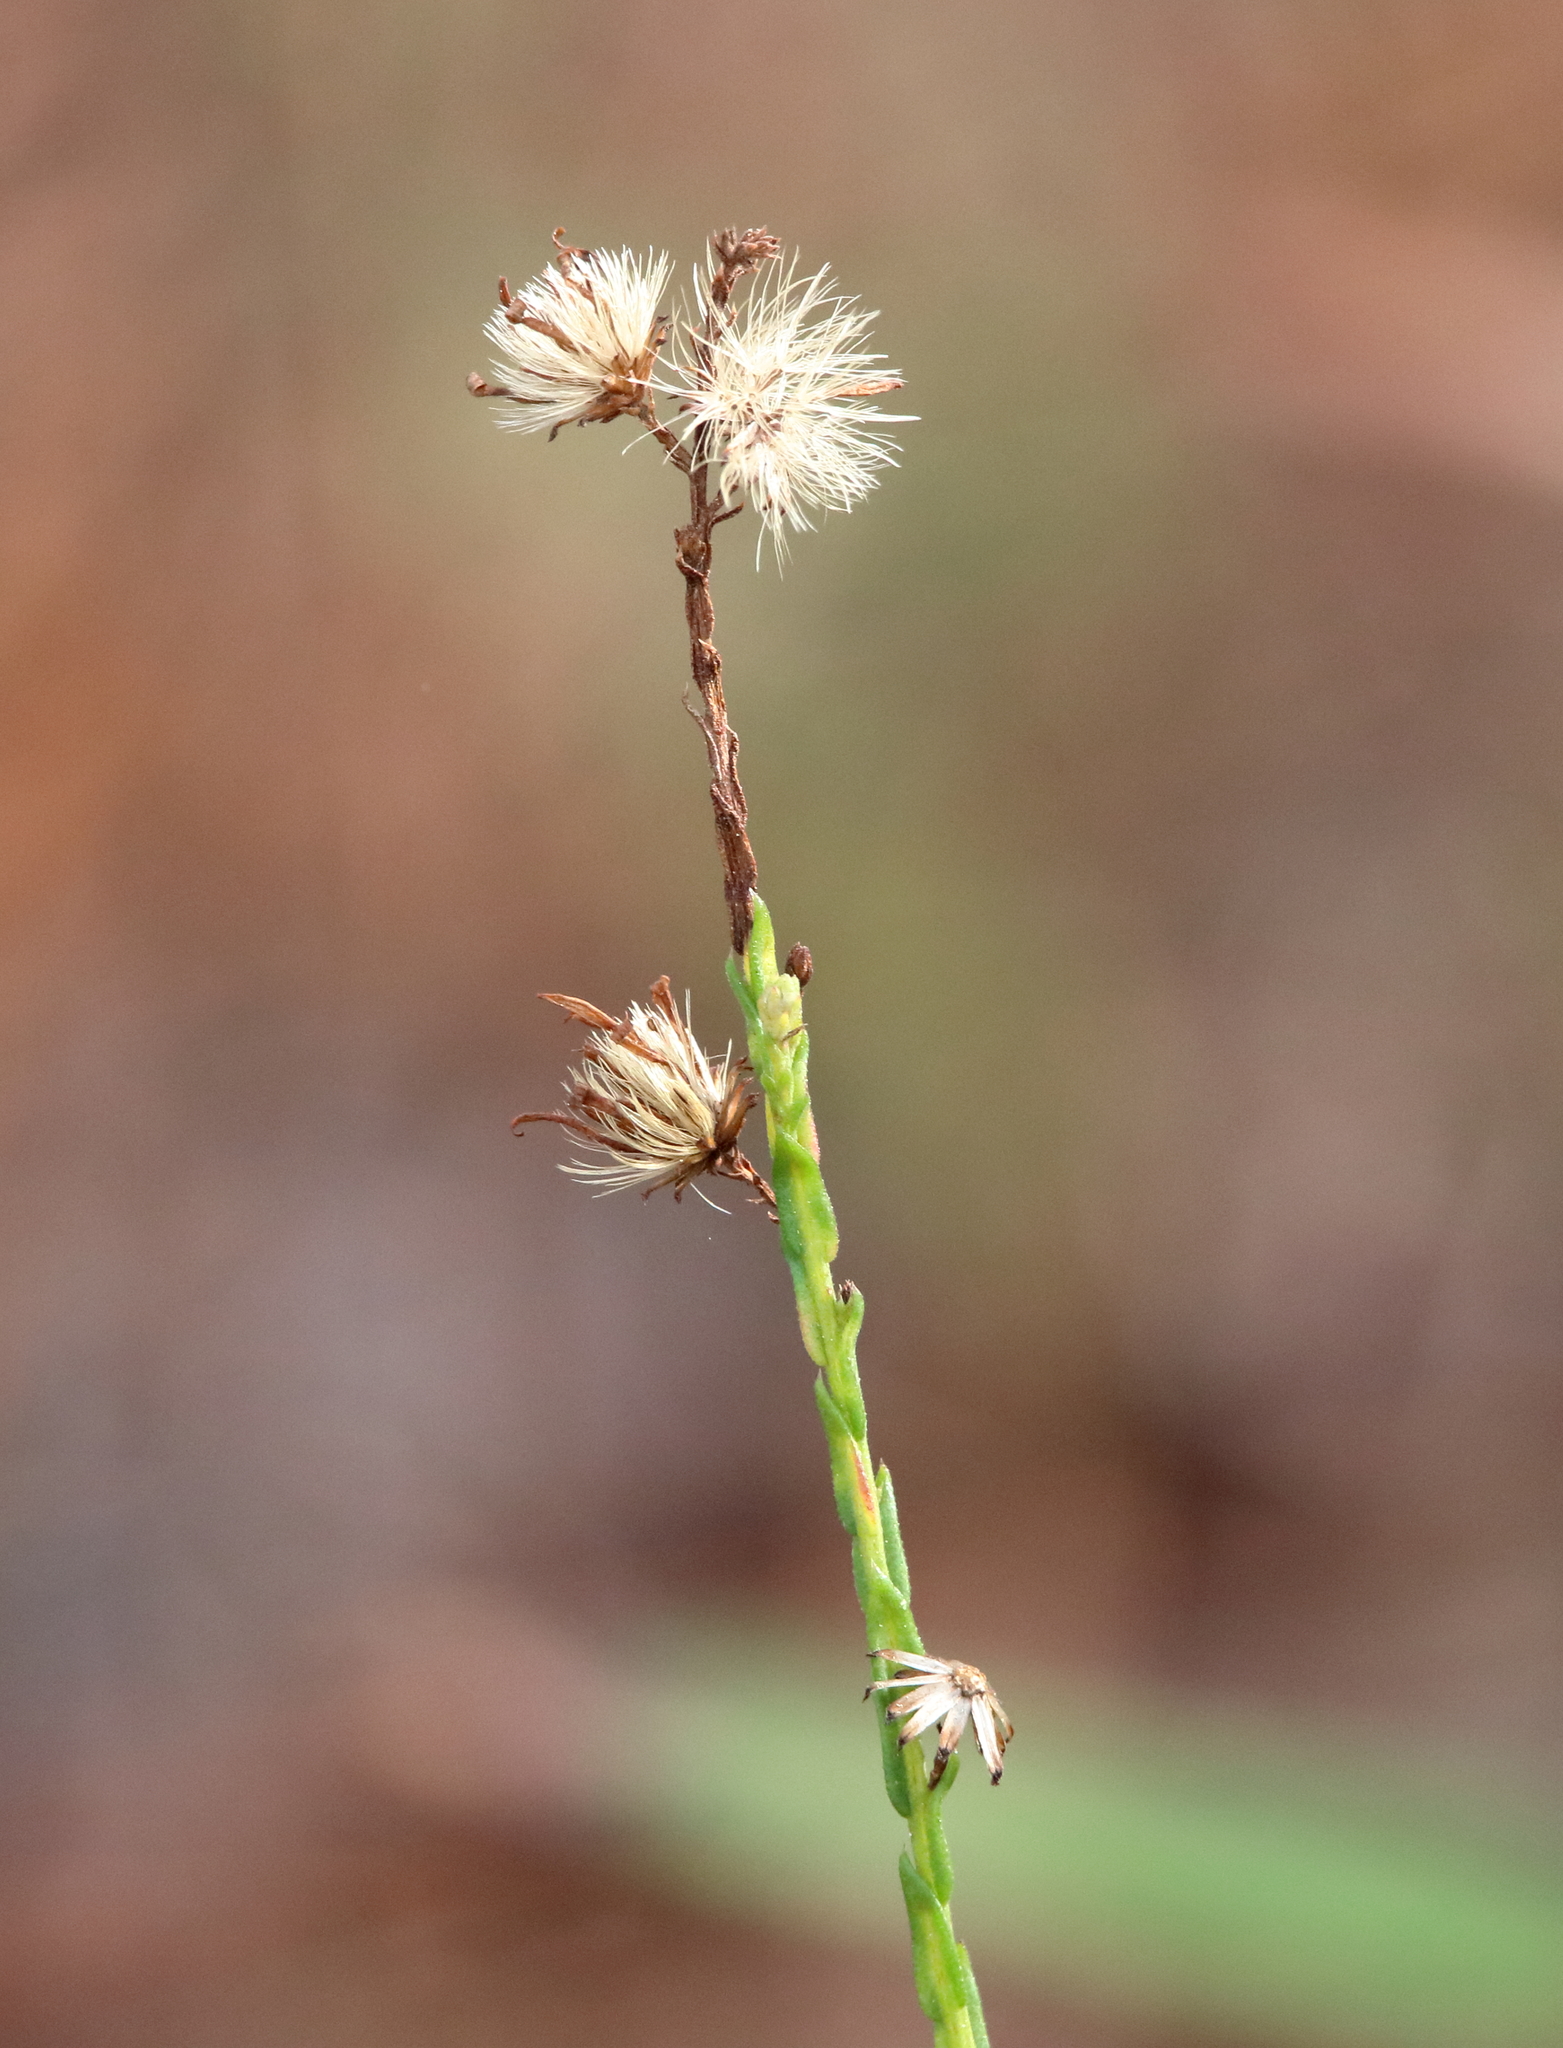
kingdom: Plantae
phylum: Tracheophyta
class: Magnoliopsida
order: Asterales
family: Asteraceae
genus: Symphyotrichum
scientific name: Symphyotrichum adnatum
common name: Scale-leaf aster
